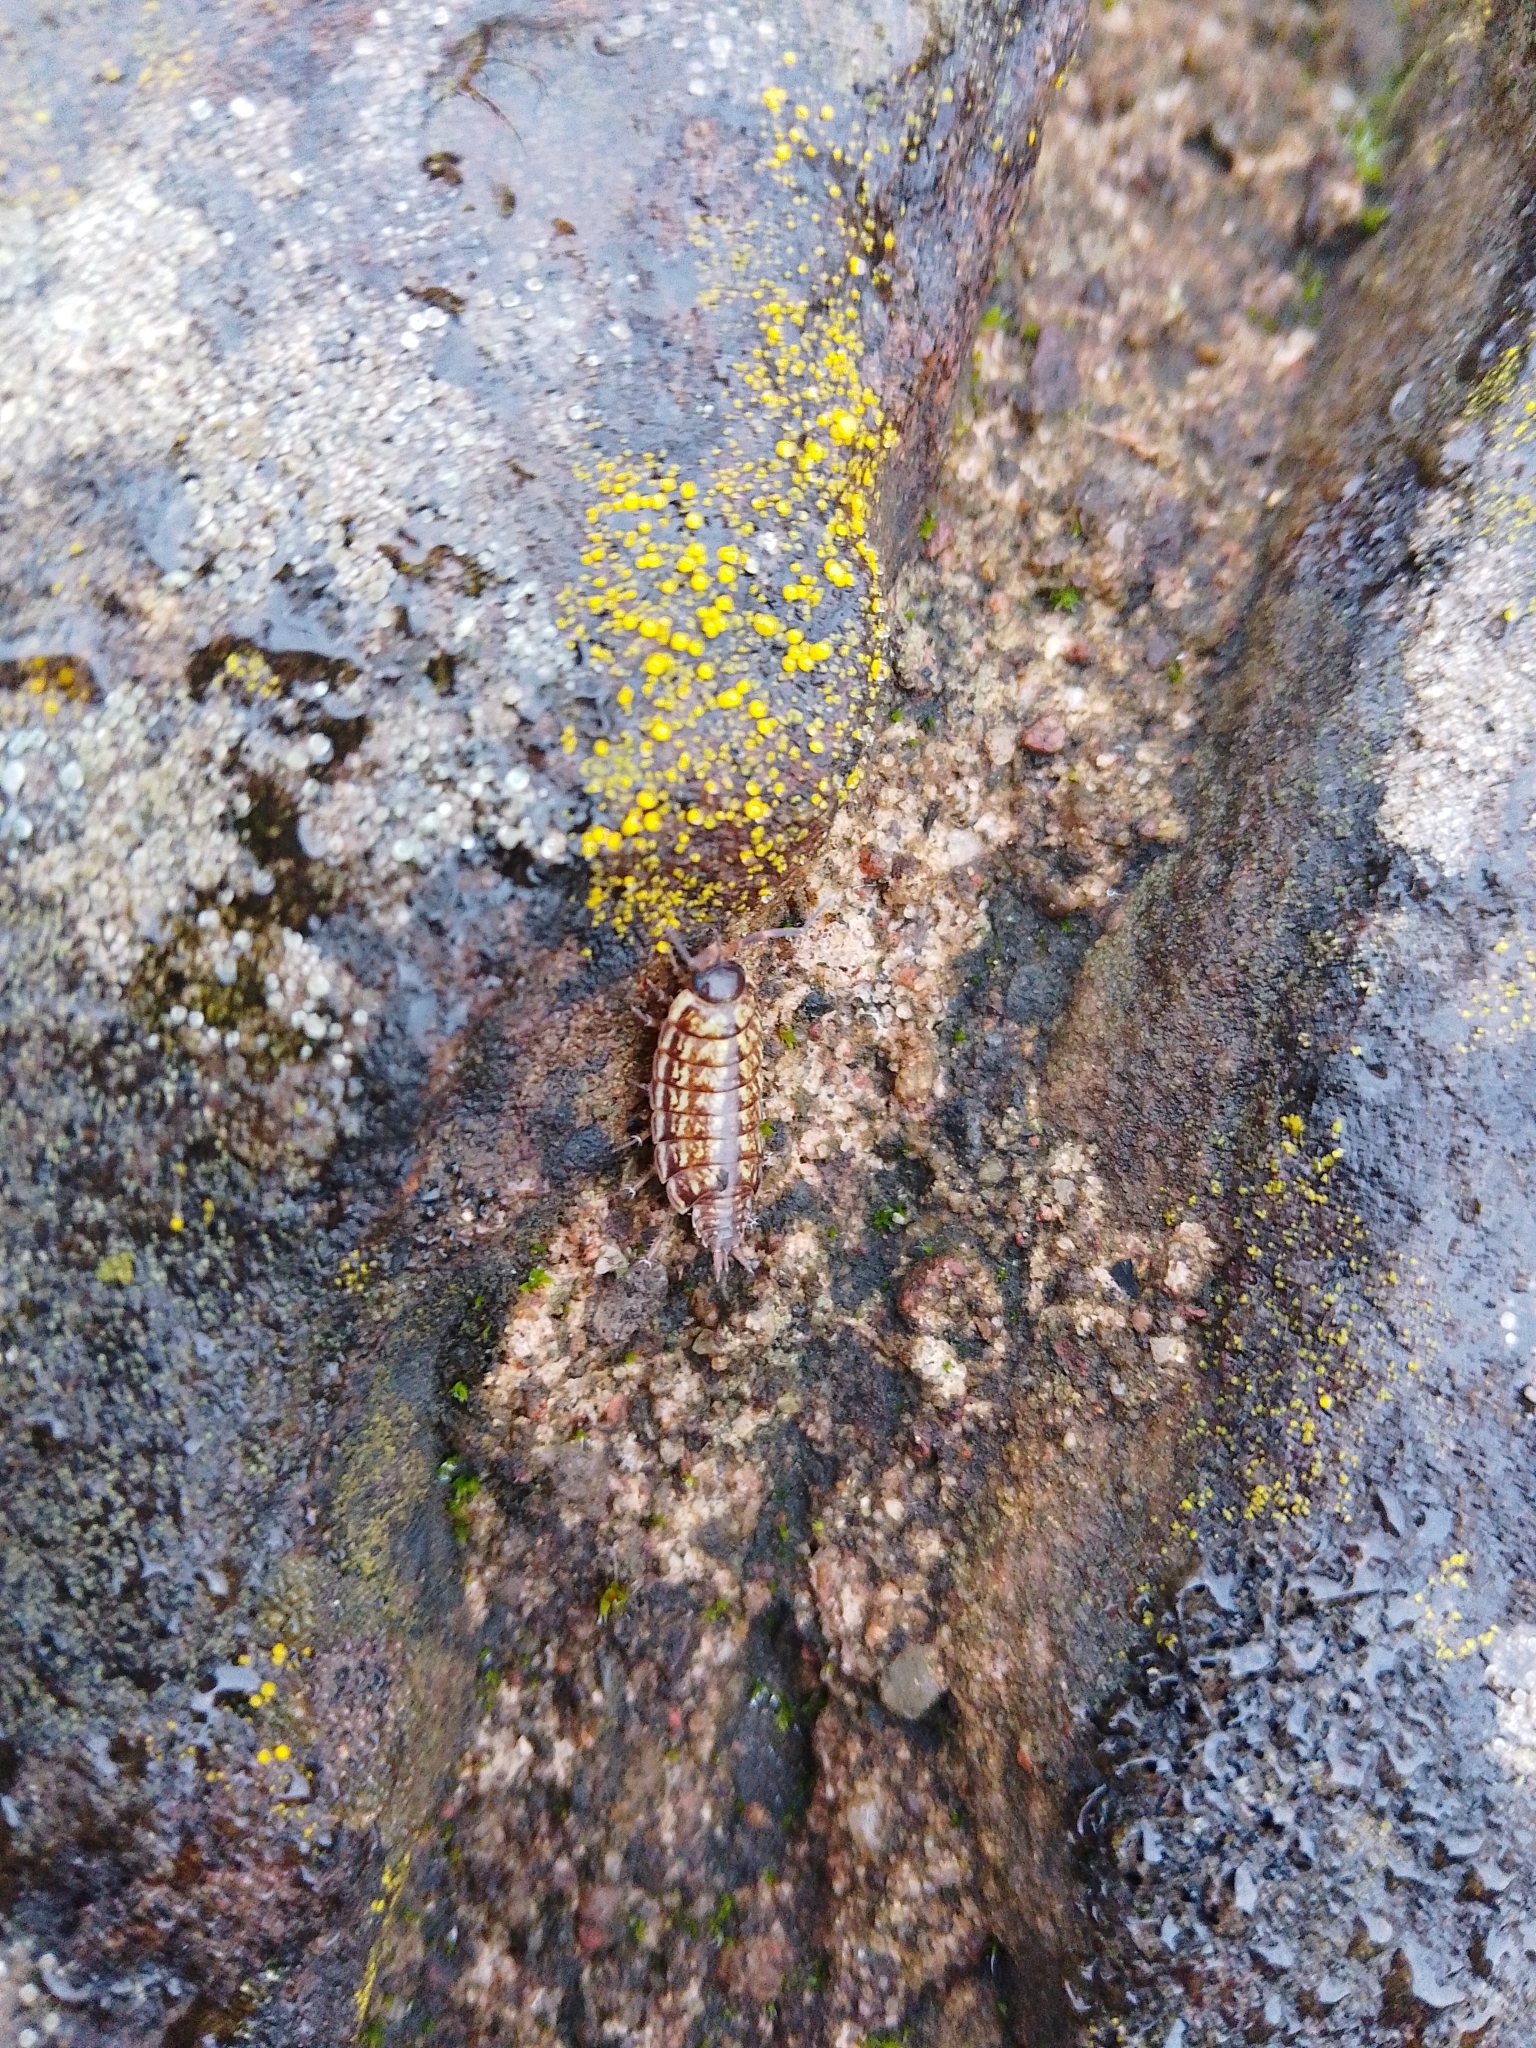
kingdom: Animalia
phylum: Arthropoda
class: Malacostraca
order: Isopoda
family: Philosciidae
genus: Philoscia
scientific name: Philoscia muscorum
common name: Common striped woodlouse
